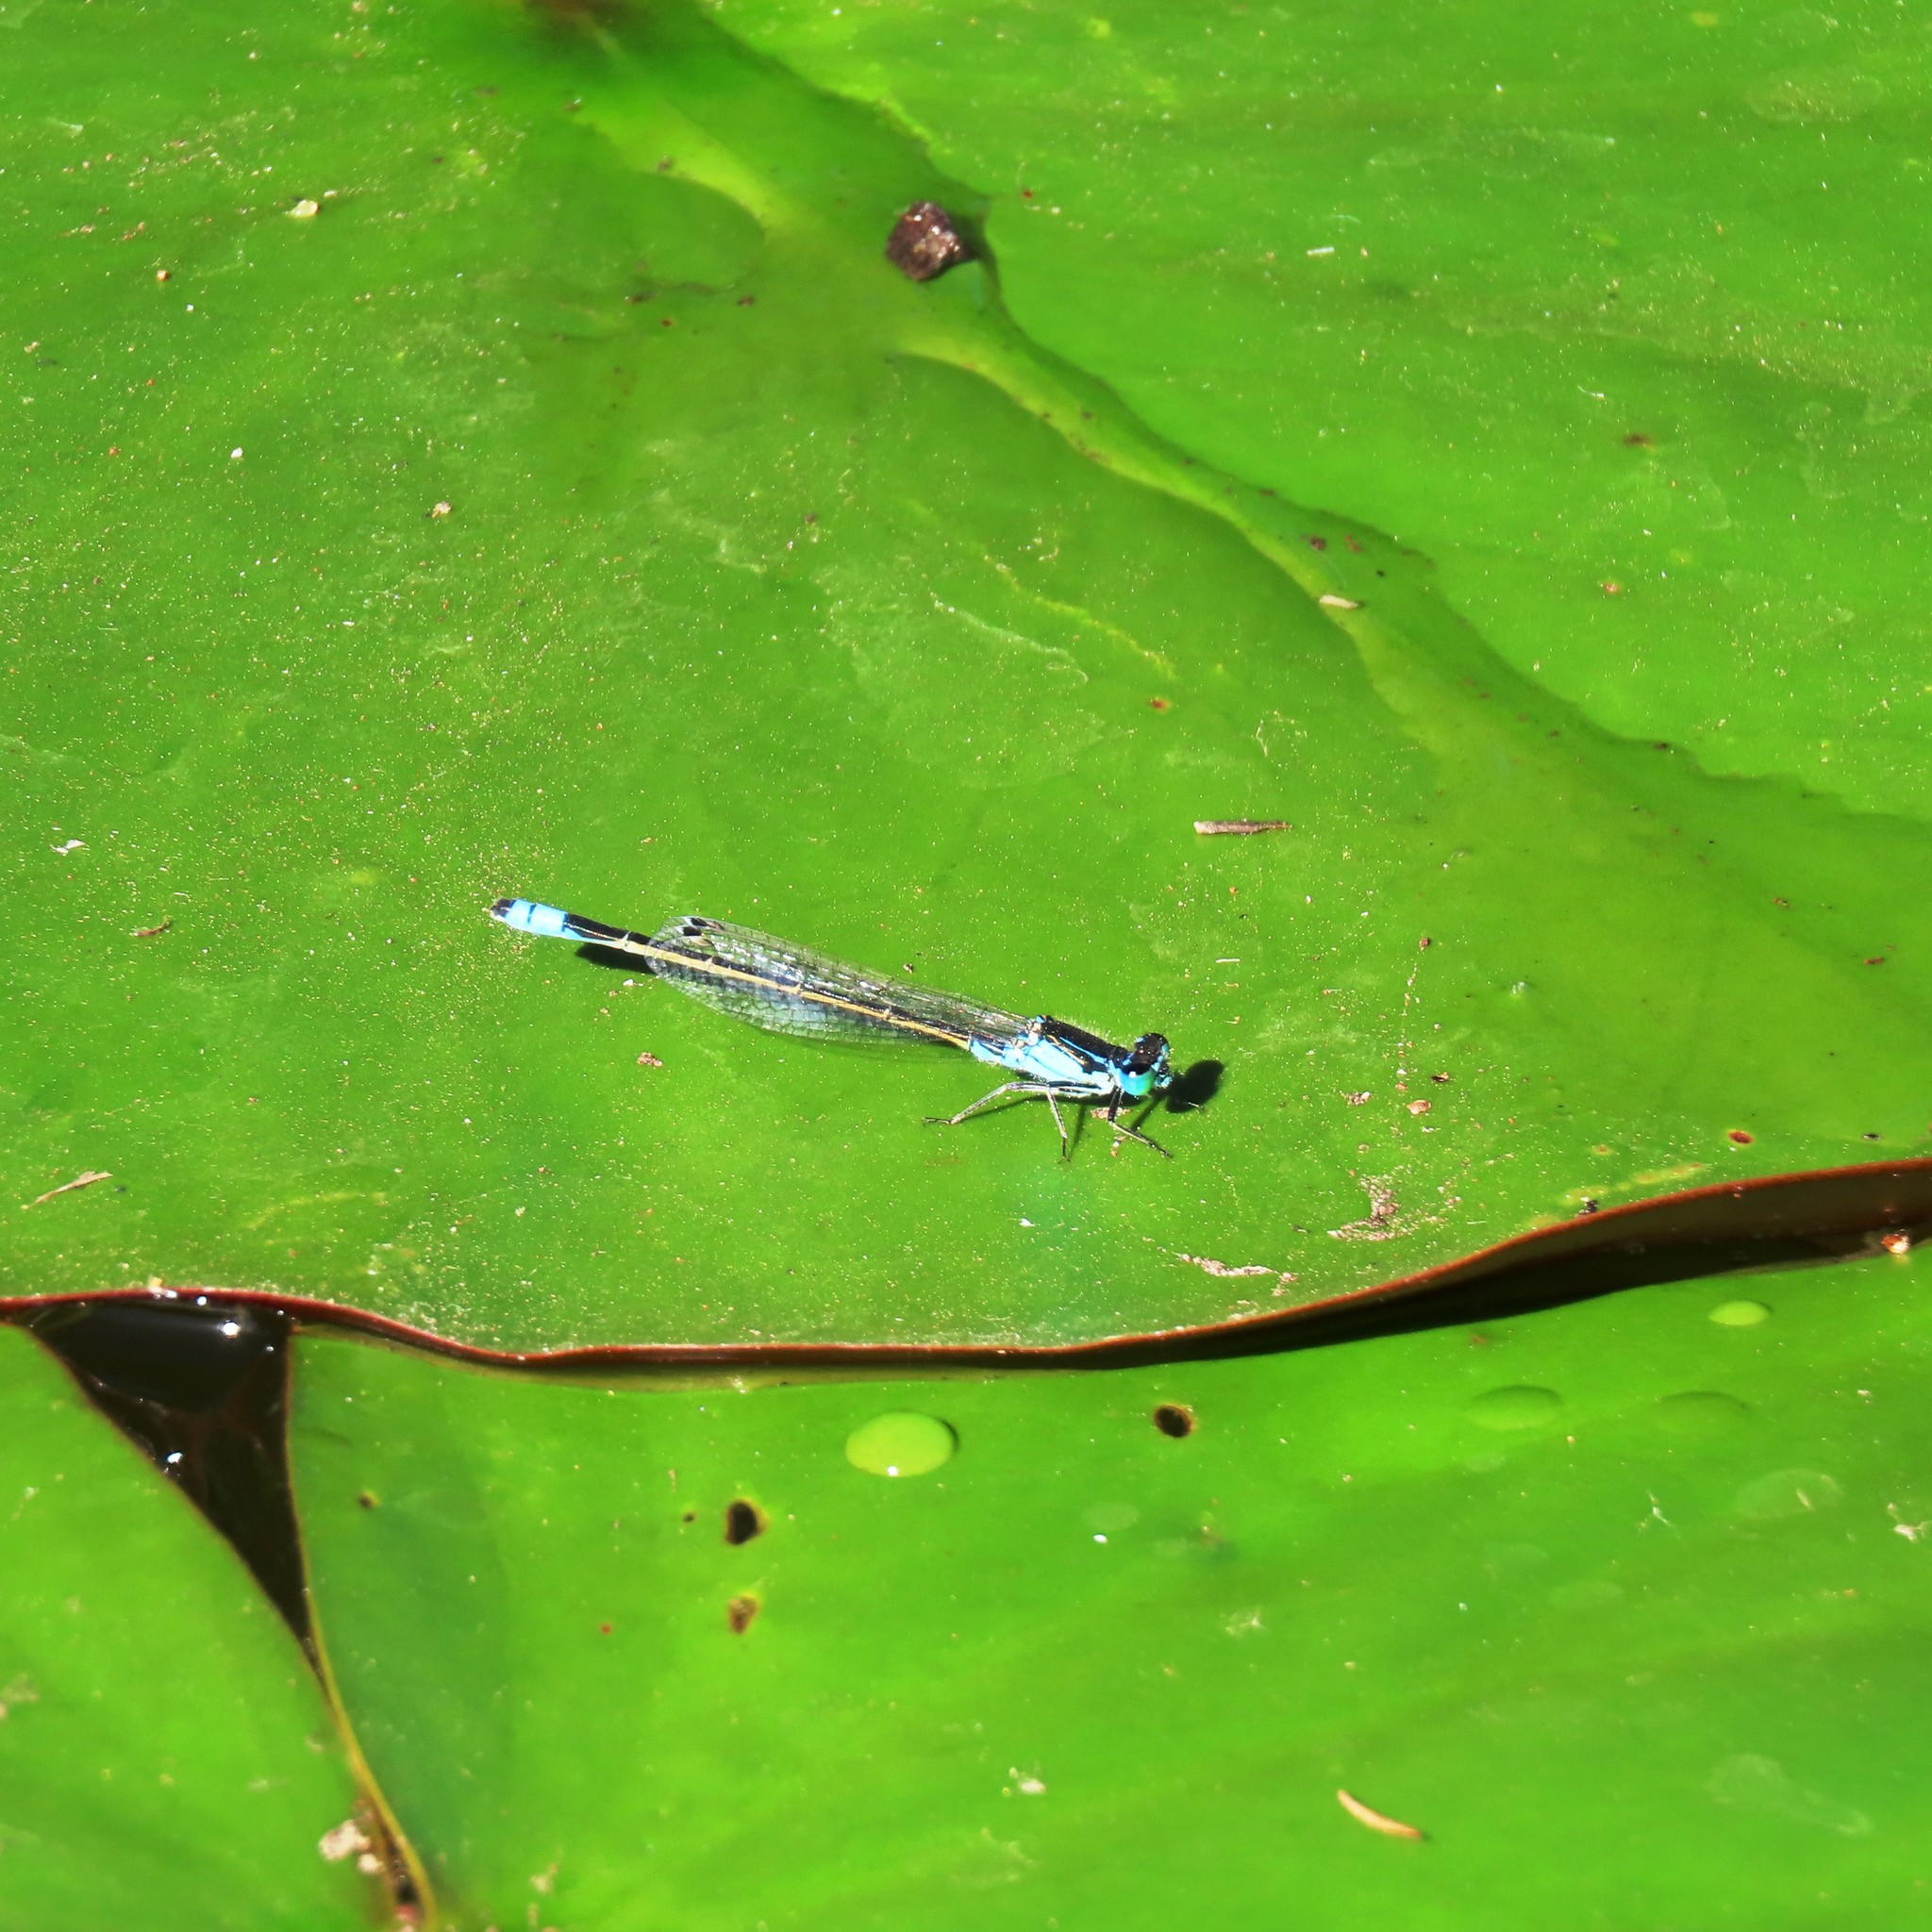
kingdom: Animalia
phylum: Arthropoda
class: Insecta
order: Odonata
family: Coenagrionidae
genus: Ischnura
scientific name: Ischnura heterosticta
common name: Common bluetail
